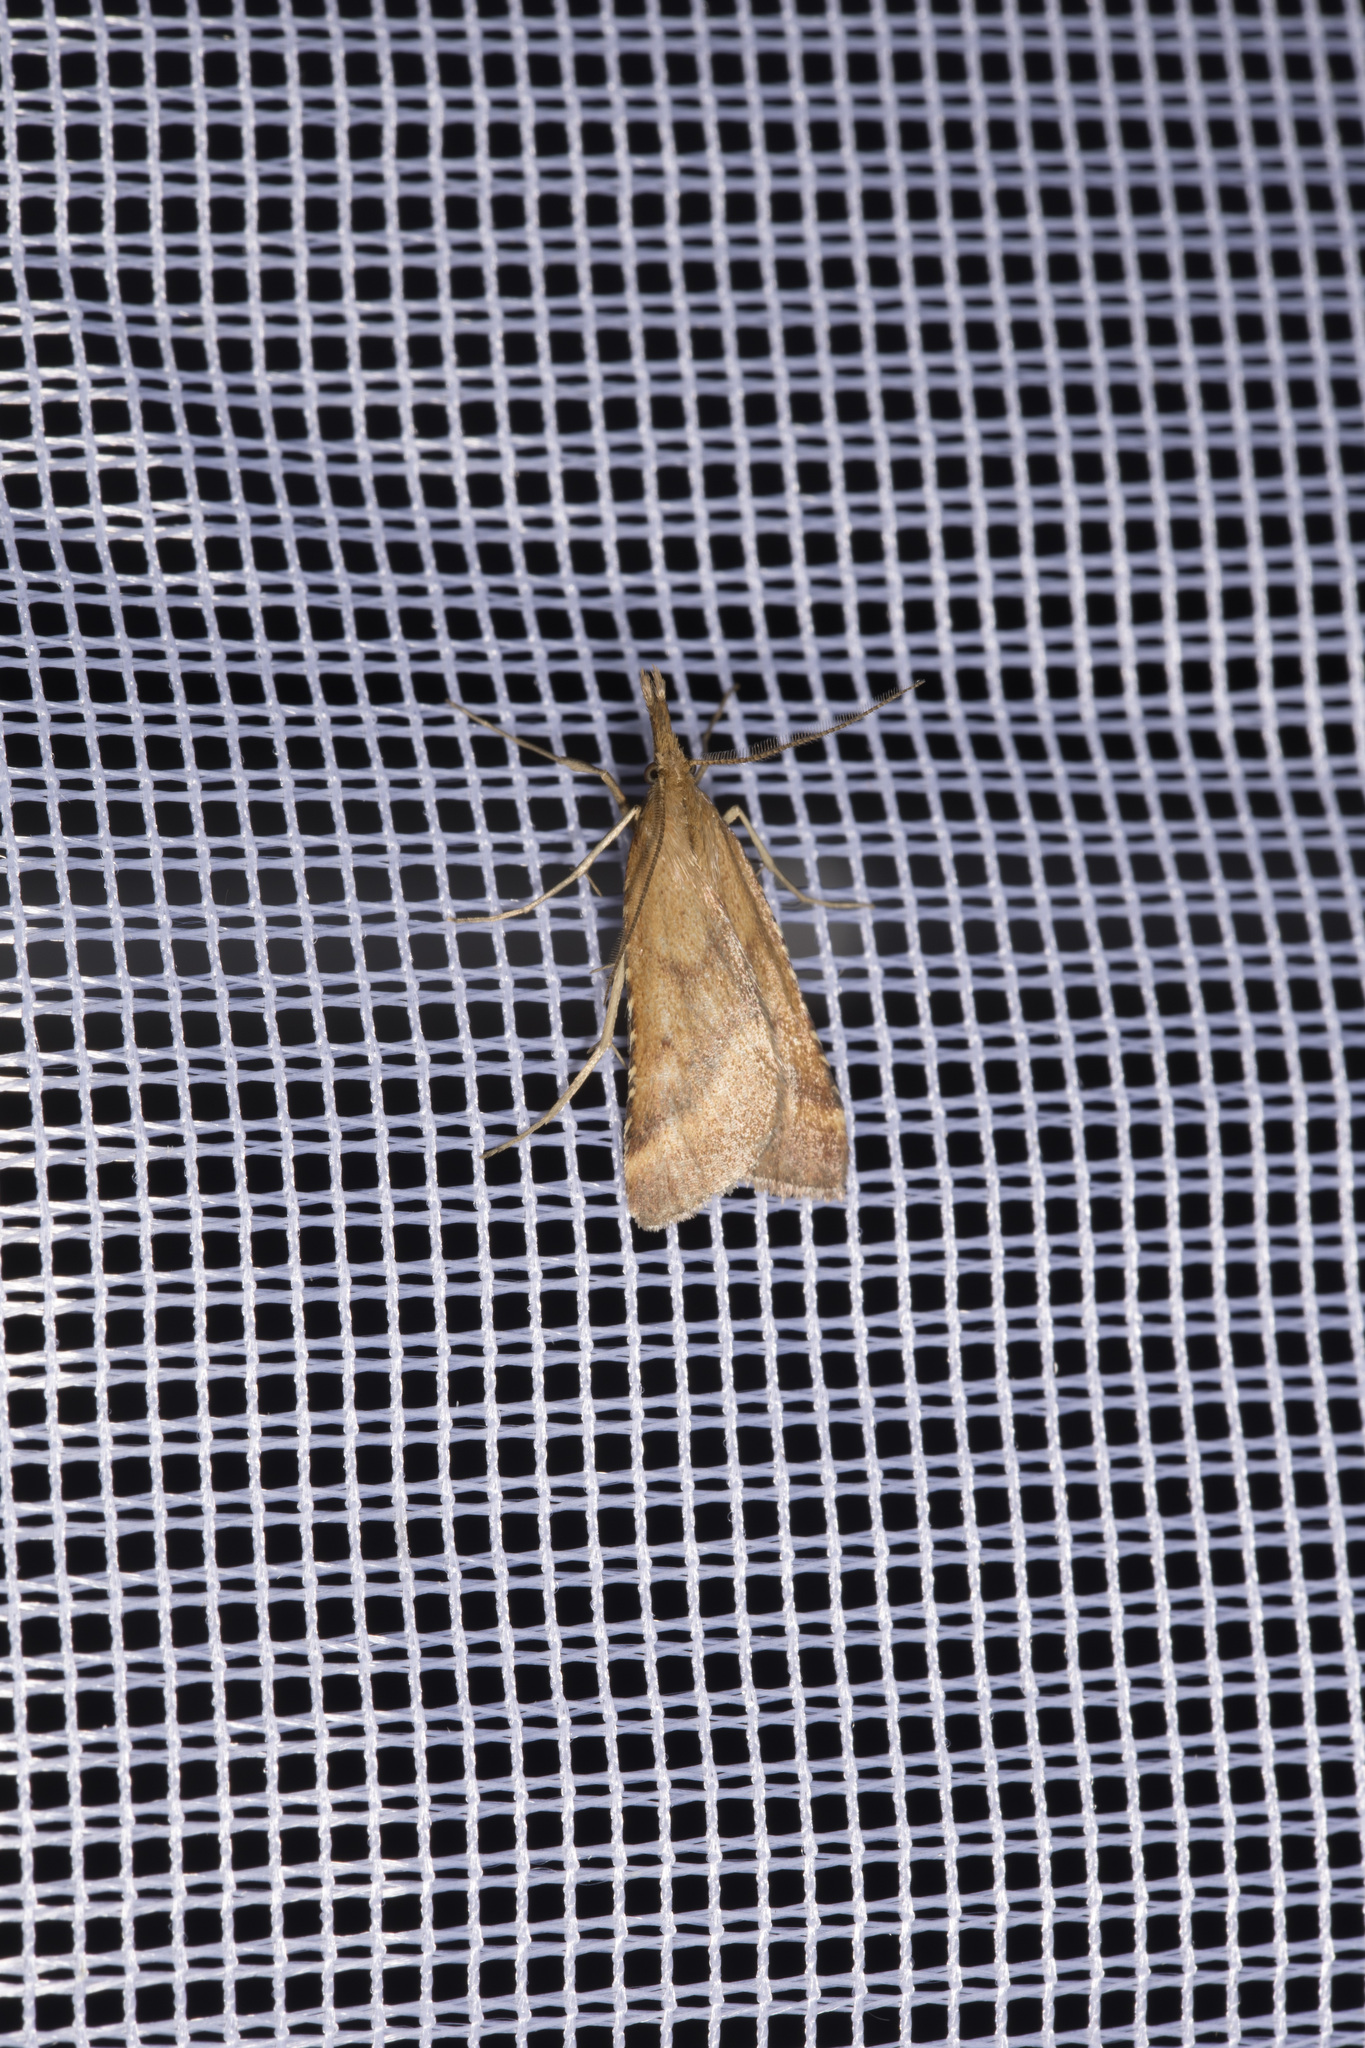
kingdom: Animalia
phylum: Arthropoda
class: Insecta
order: Lepidoptera
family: Pyralidae
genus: Synaphe
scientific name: Synaphe punctalis
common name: Long-legged tabby
